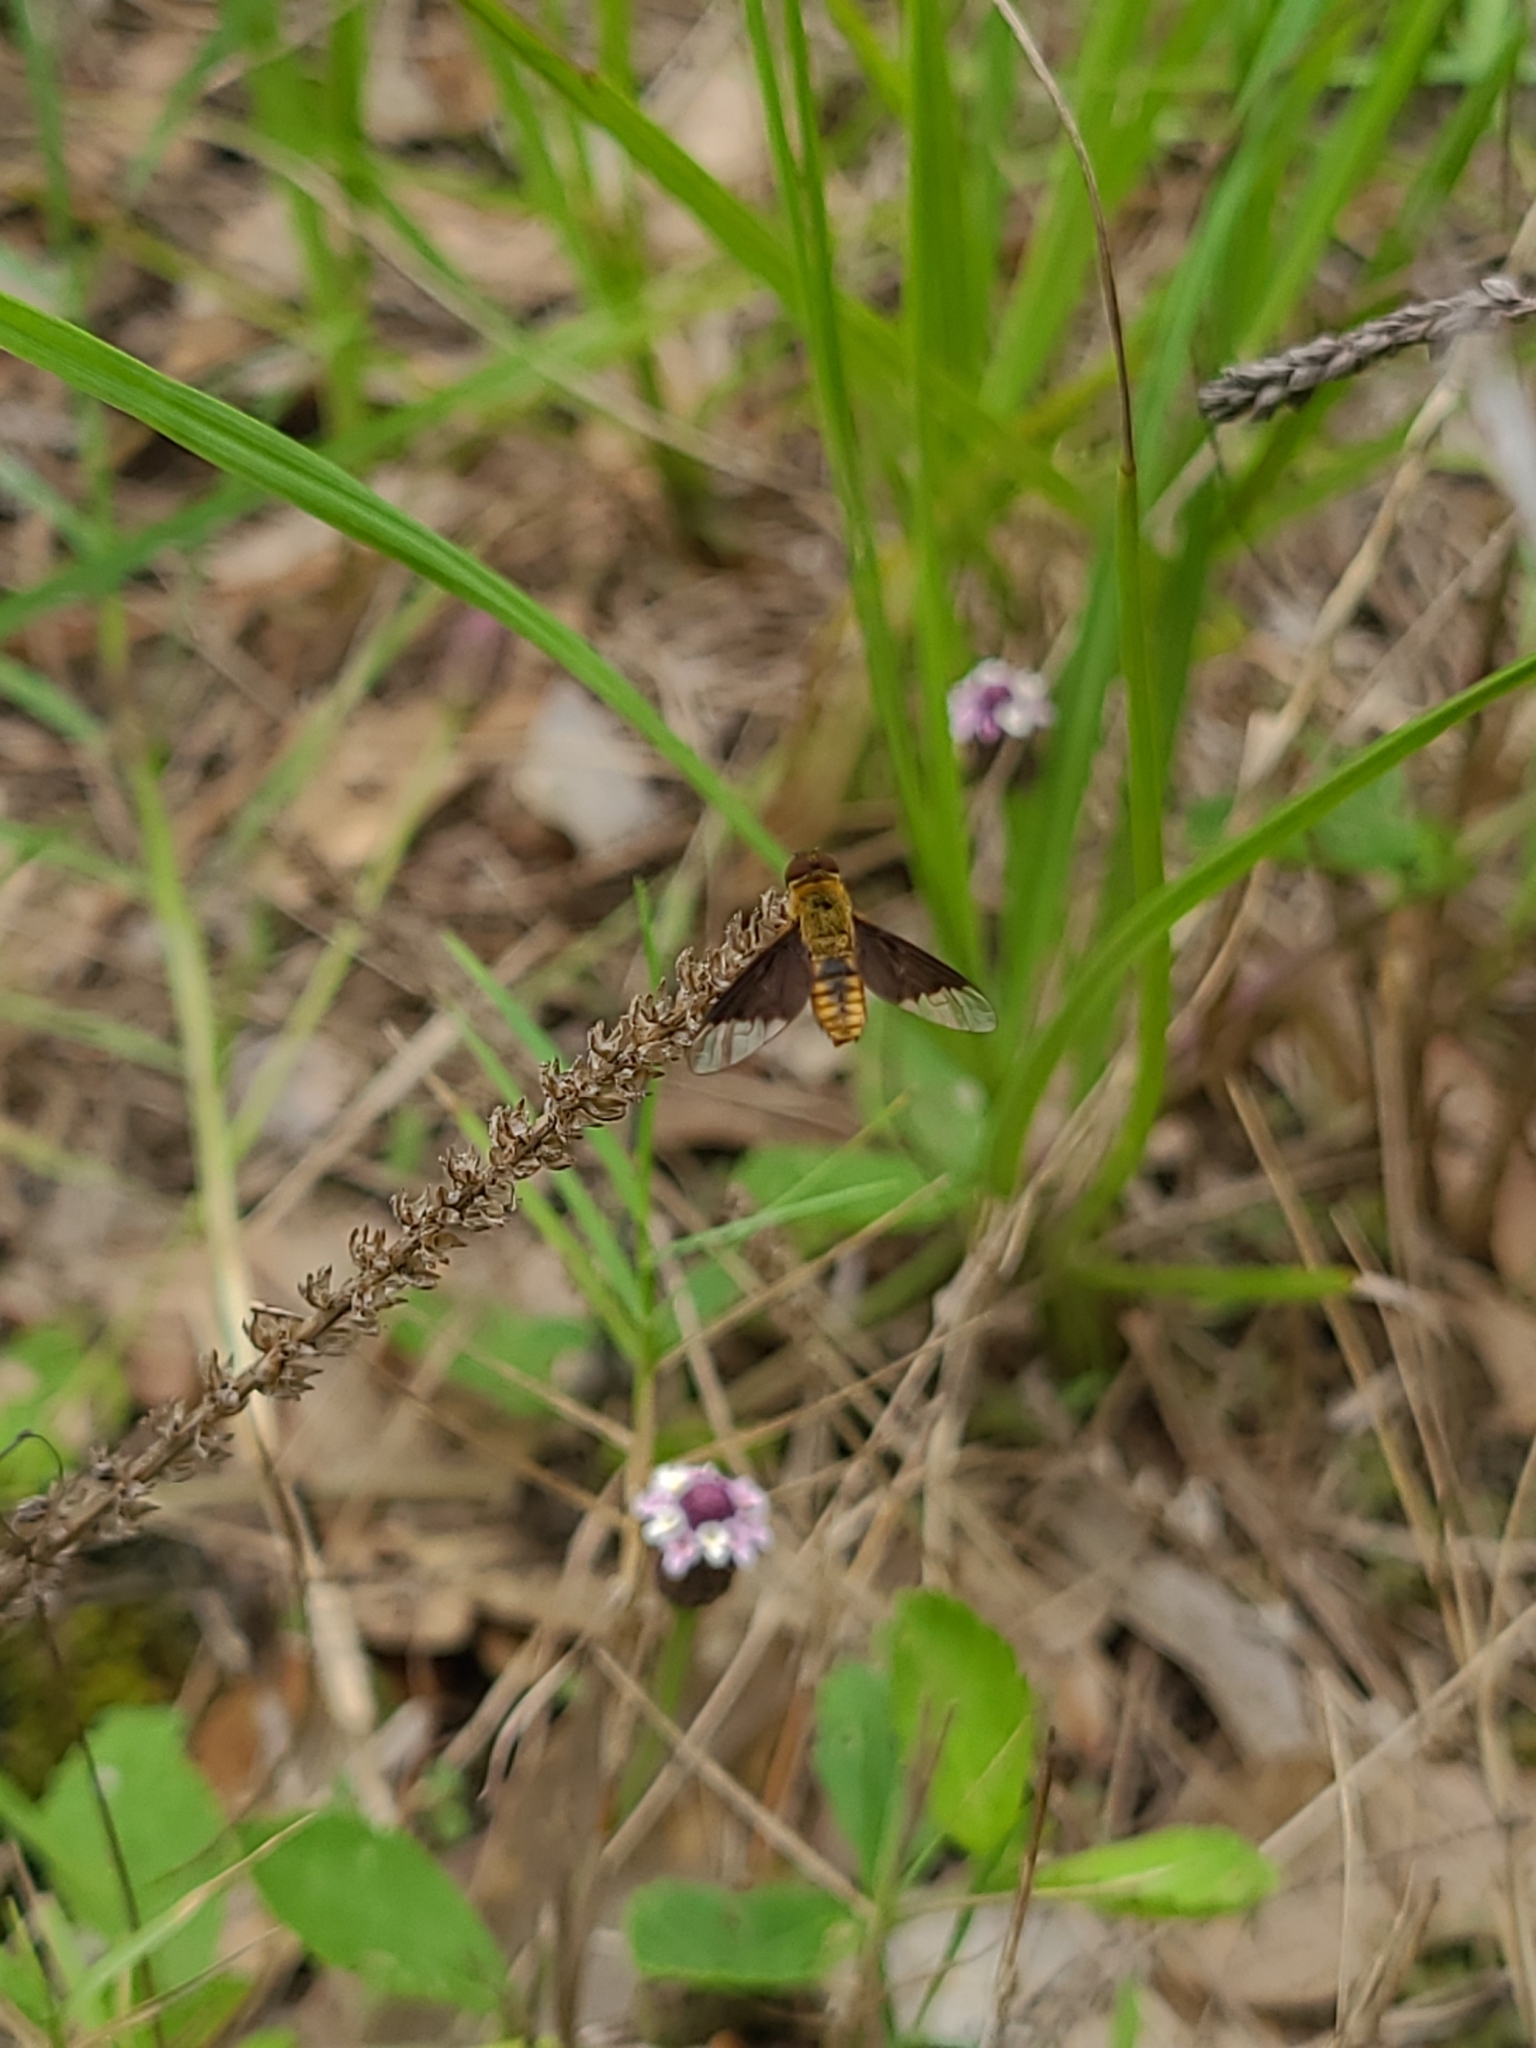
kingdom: Animalia
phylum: Arthropoda
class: Insecta
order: Diptera
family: Bombyliidae
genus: Chrysanthrax
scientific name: Chrysanthrax cypris
